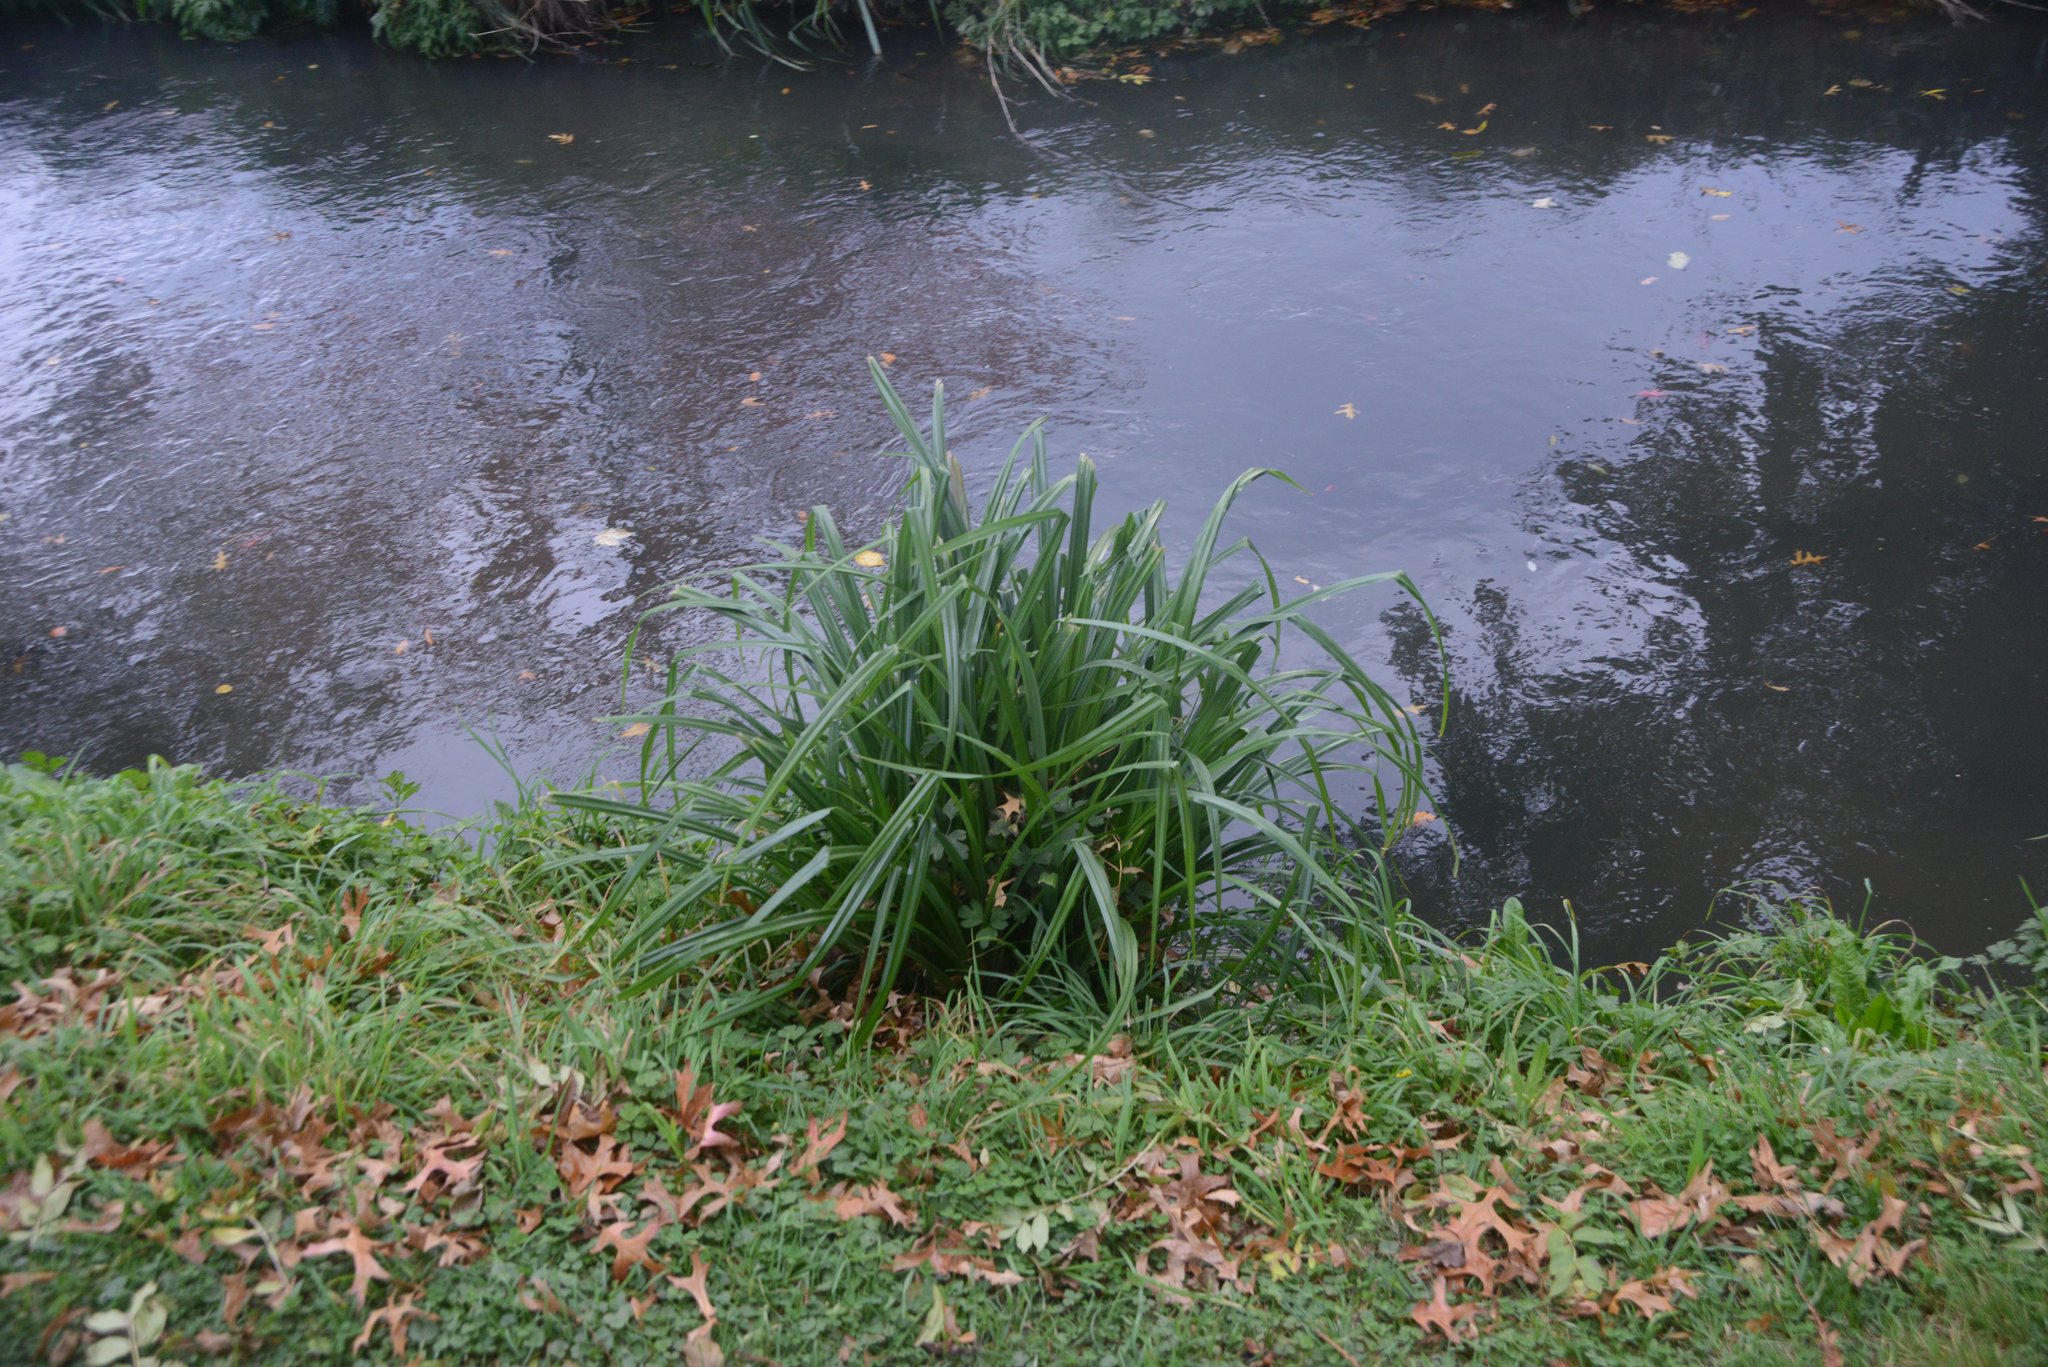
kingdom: Plantae
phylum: Tracheophyta
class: Liliopsida
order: Poales
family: Cyperaceae
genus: Carex
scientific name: Carex pendula
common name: Pendulous sedge
